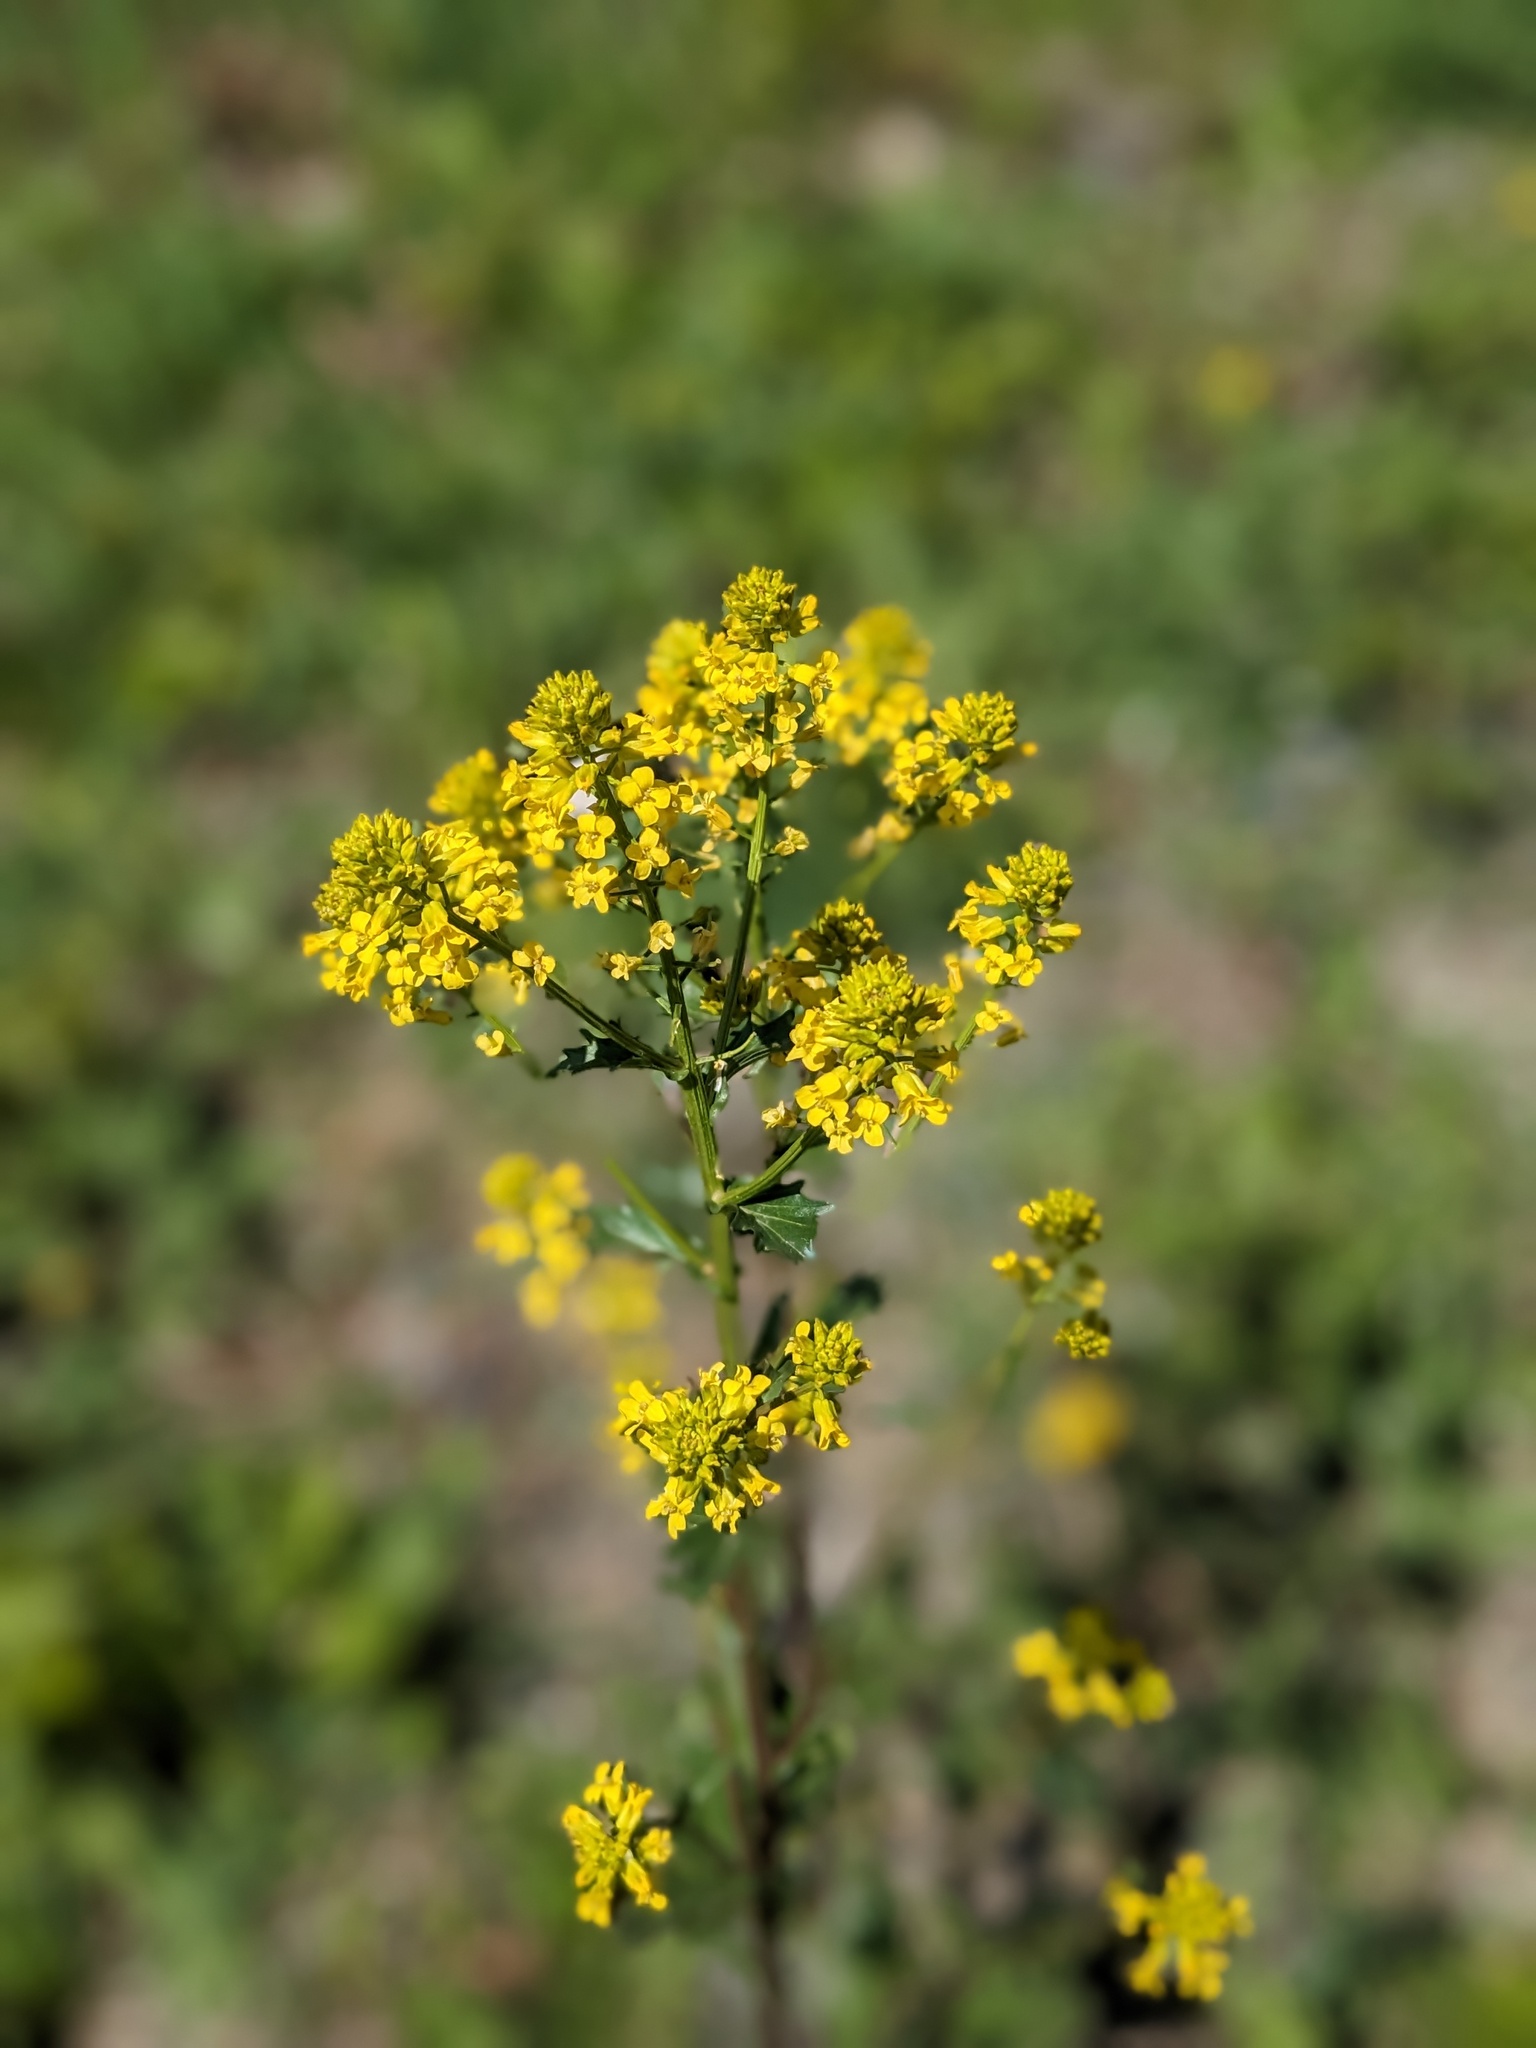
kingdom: Plantae
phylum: Tracheophyta
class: Magnoliopsida
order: Brassicales
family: Brassicaceae
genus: Barbarea
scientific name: Barbarea vulgaris
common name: Cressy-greens
